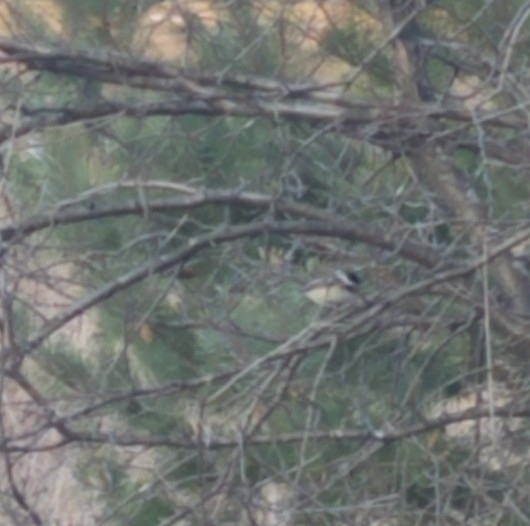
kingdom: Animalia
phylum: Chordata
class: Aves
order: Passeriformes
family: Paridae
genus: Poecile
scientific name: Poecile atricapillus
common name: Black-capped chickadee
